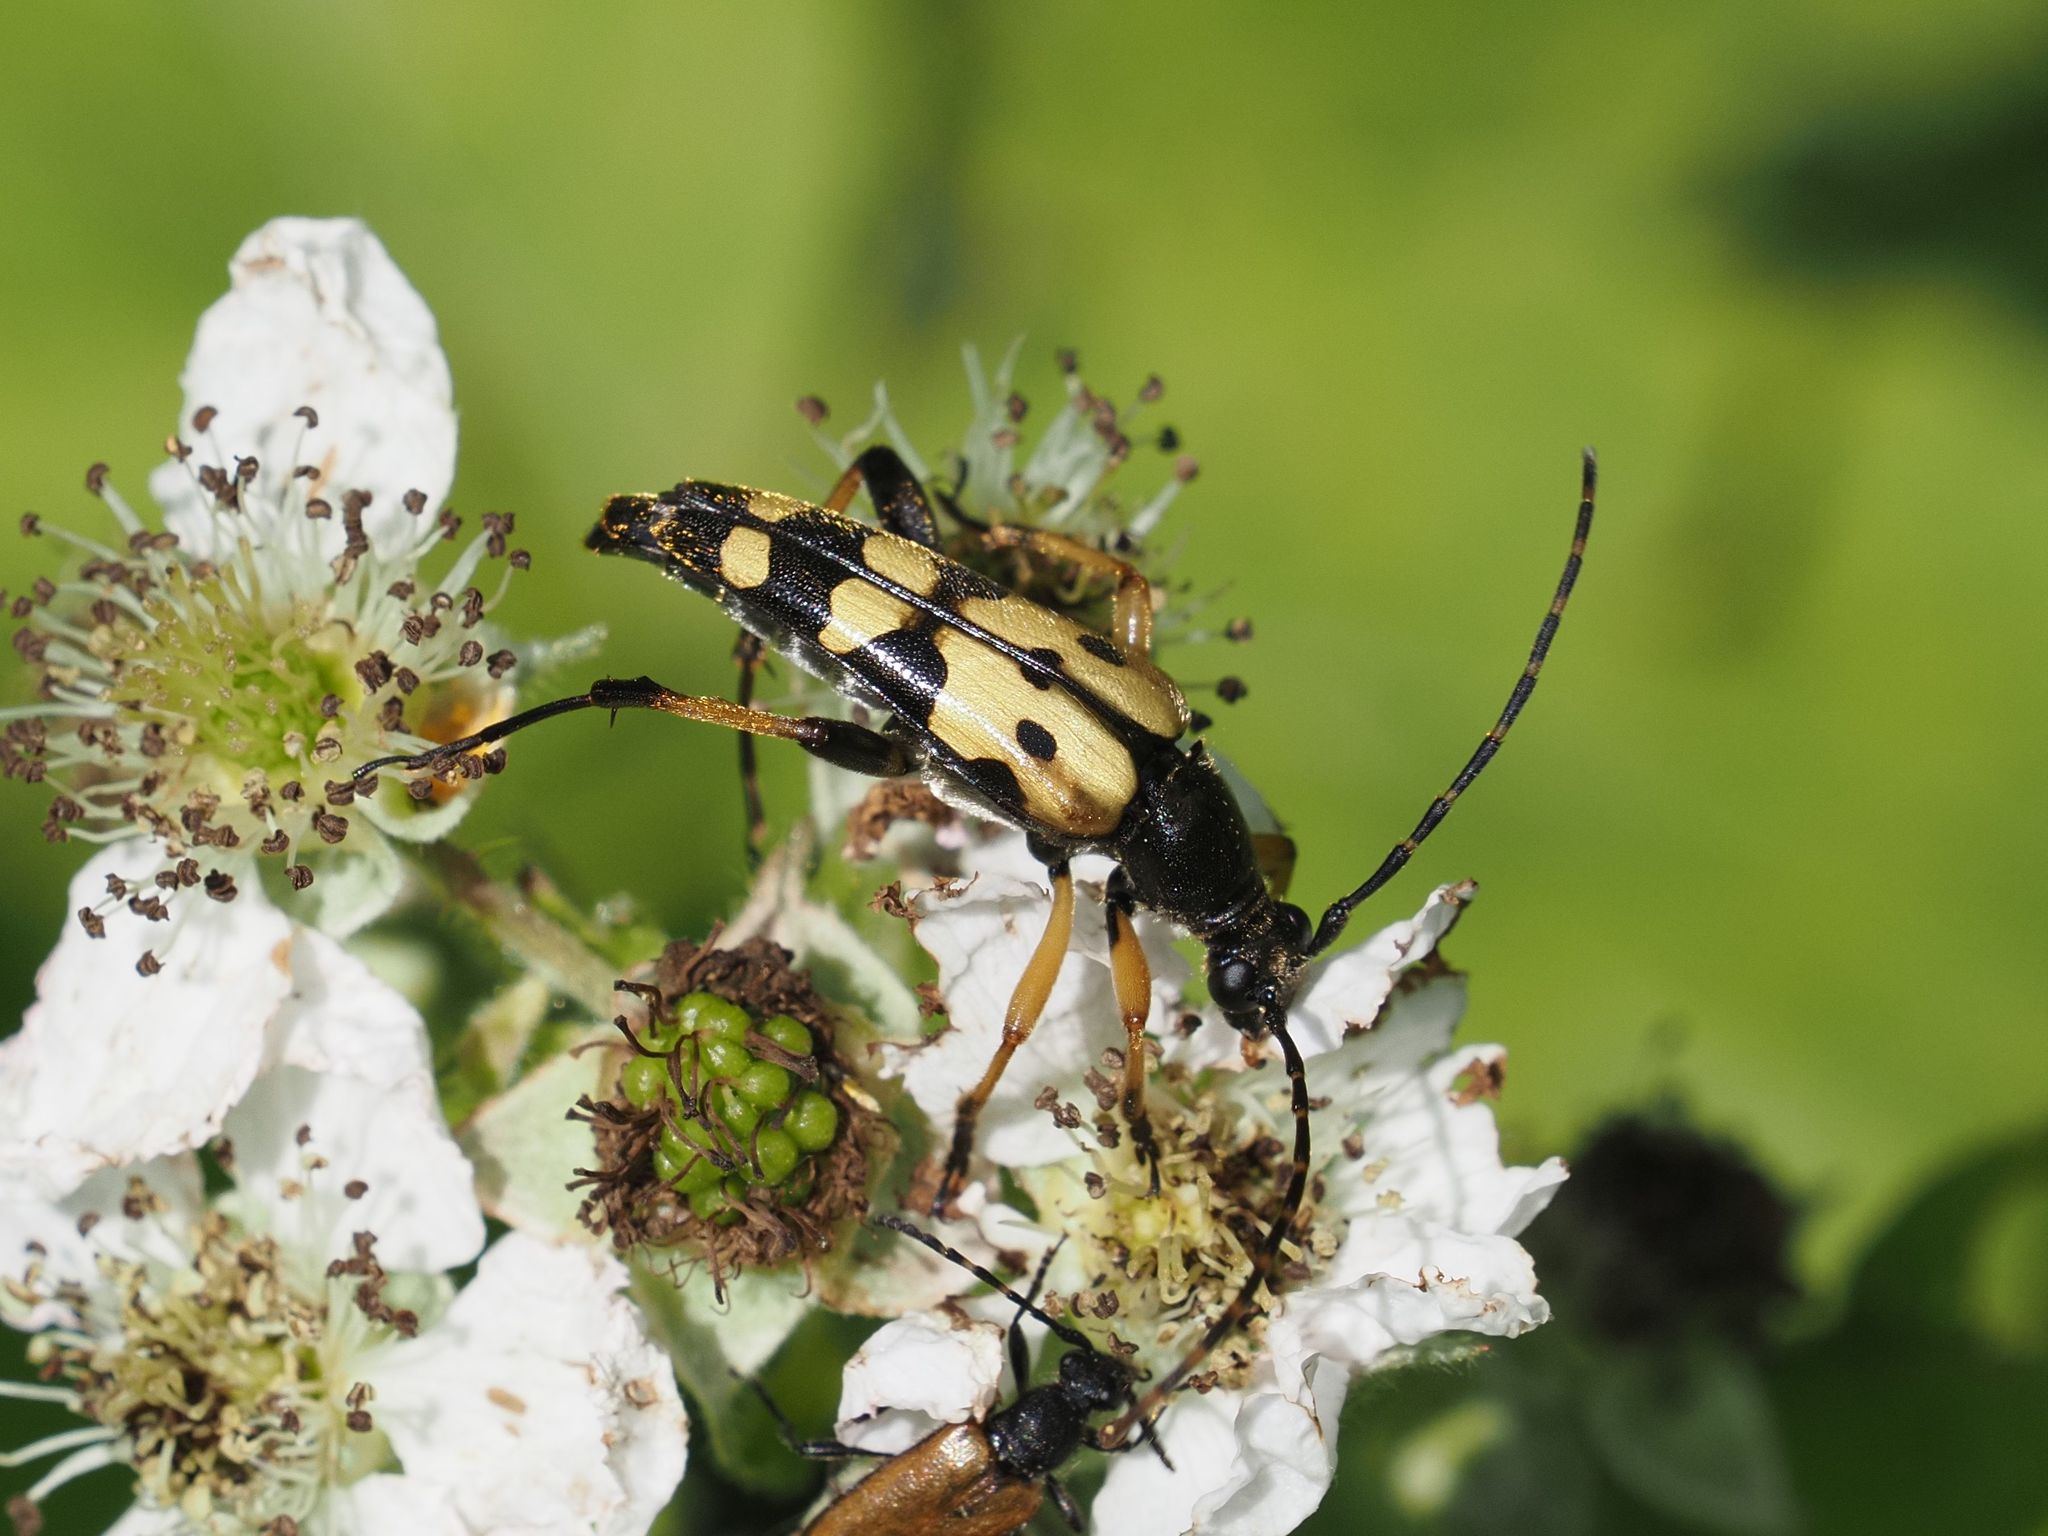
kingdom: Animalia
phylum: Arthropoda
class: Insecta
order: Coleoptera
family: Cerambycidae
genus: Rutpela
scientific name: Rutpela maculata
